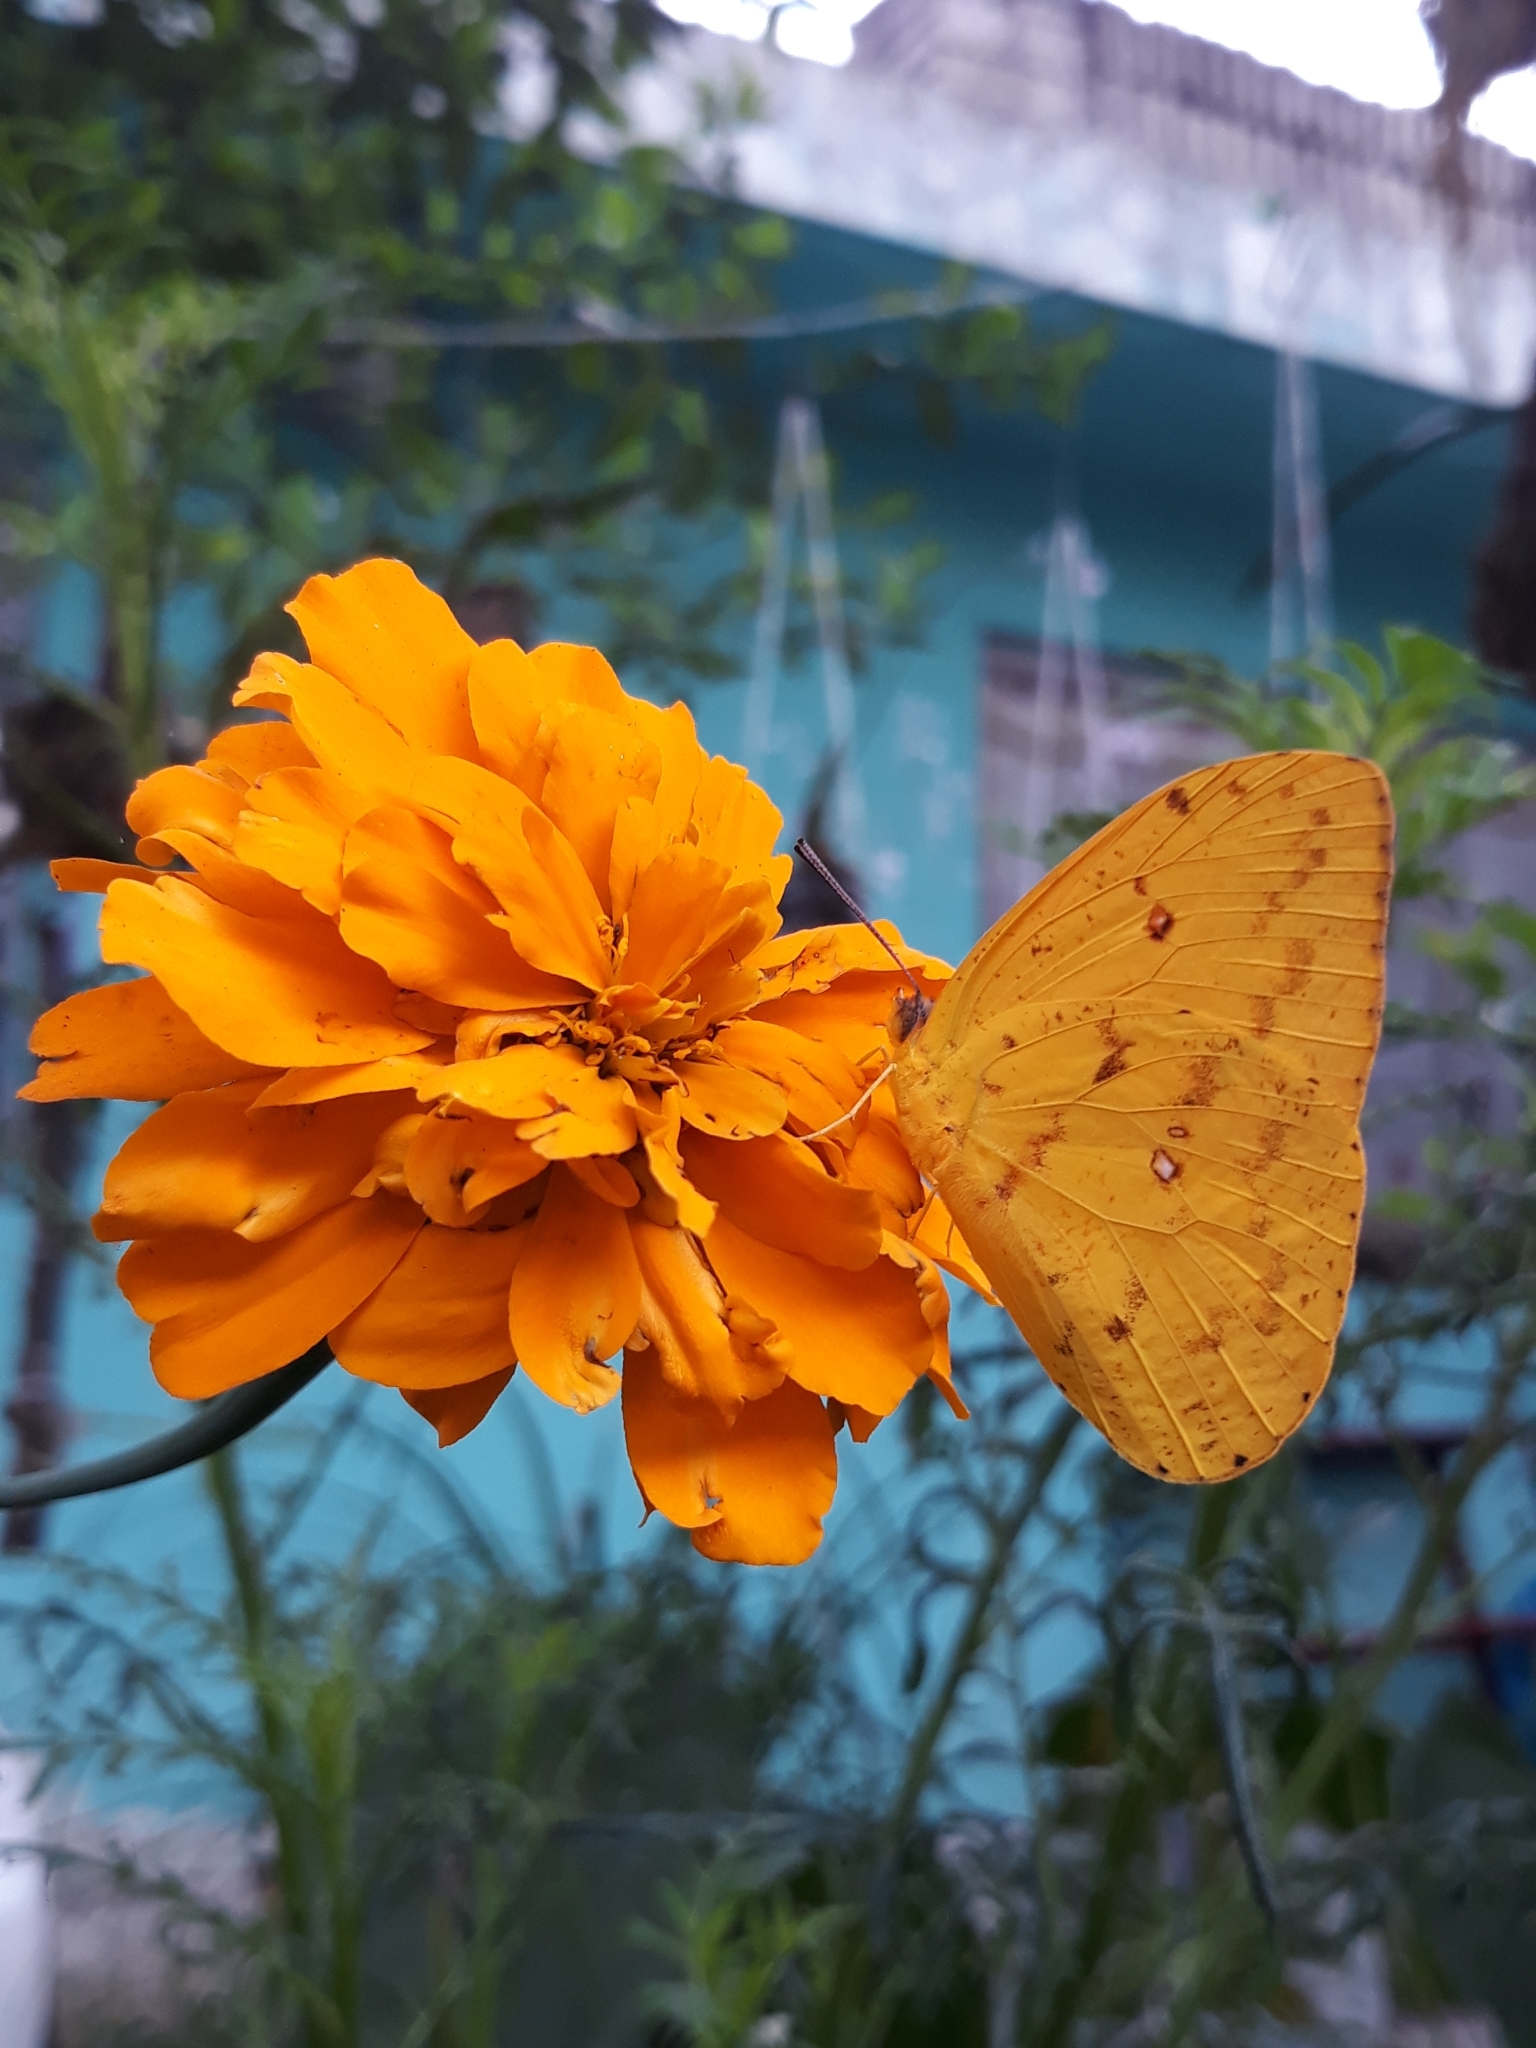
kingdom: Animalia
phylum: Arthropoda
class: Insecta
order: Lepidoptera
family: Pieridae
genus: Phoebis
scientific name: Phoebis sennae
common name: Cloudless sulphur
